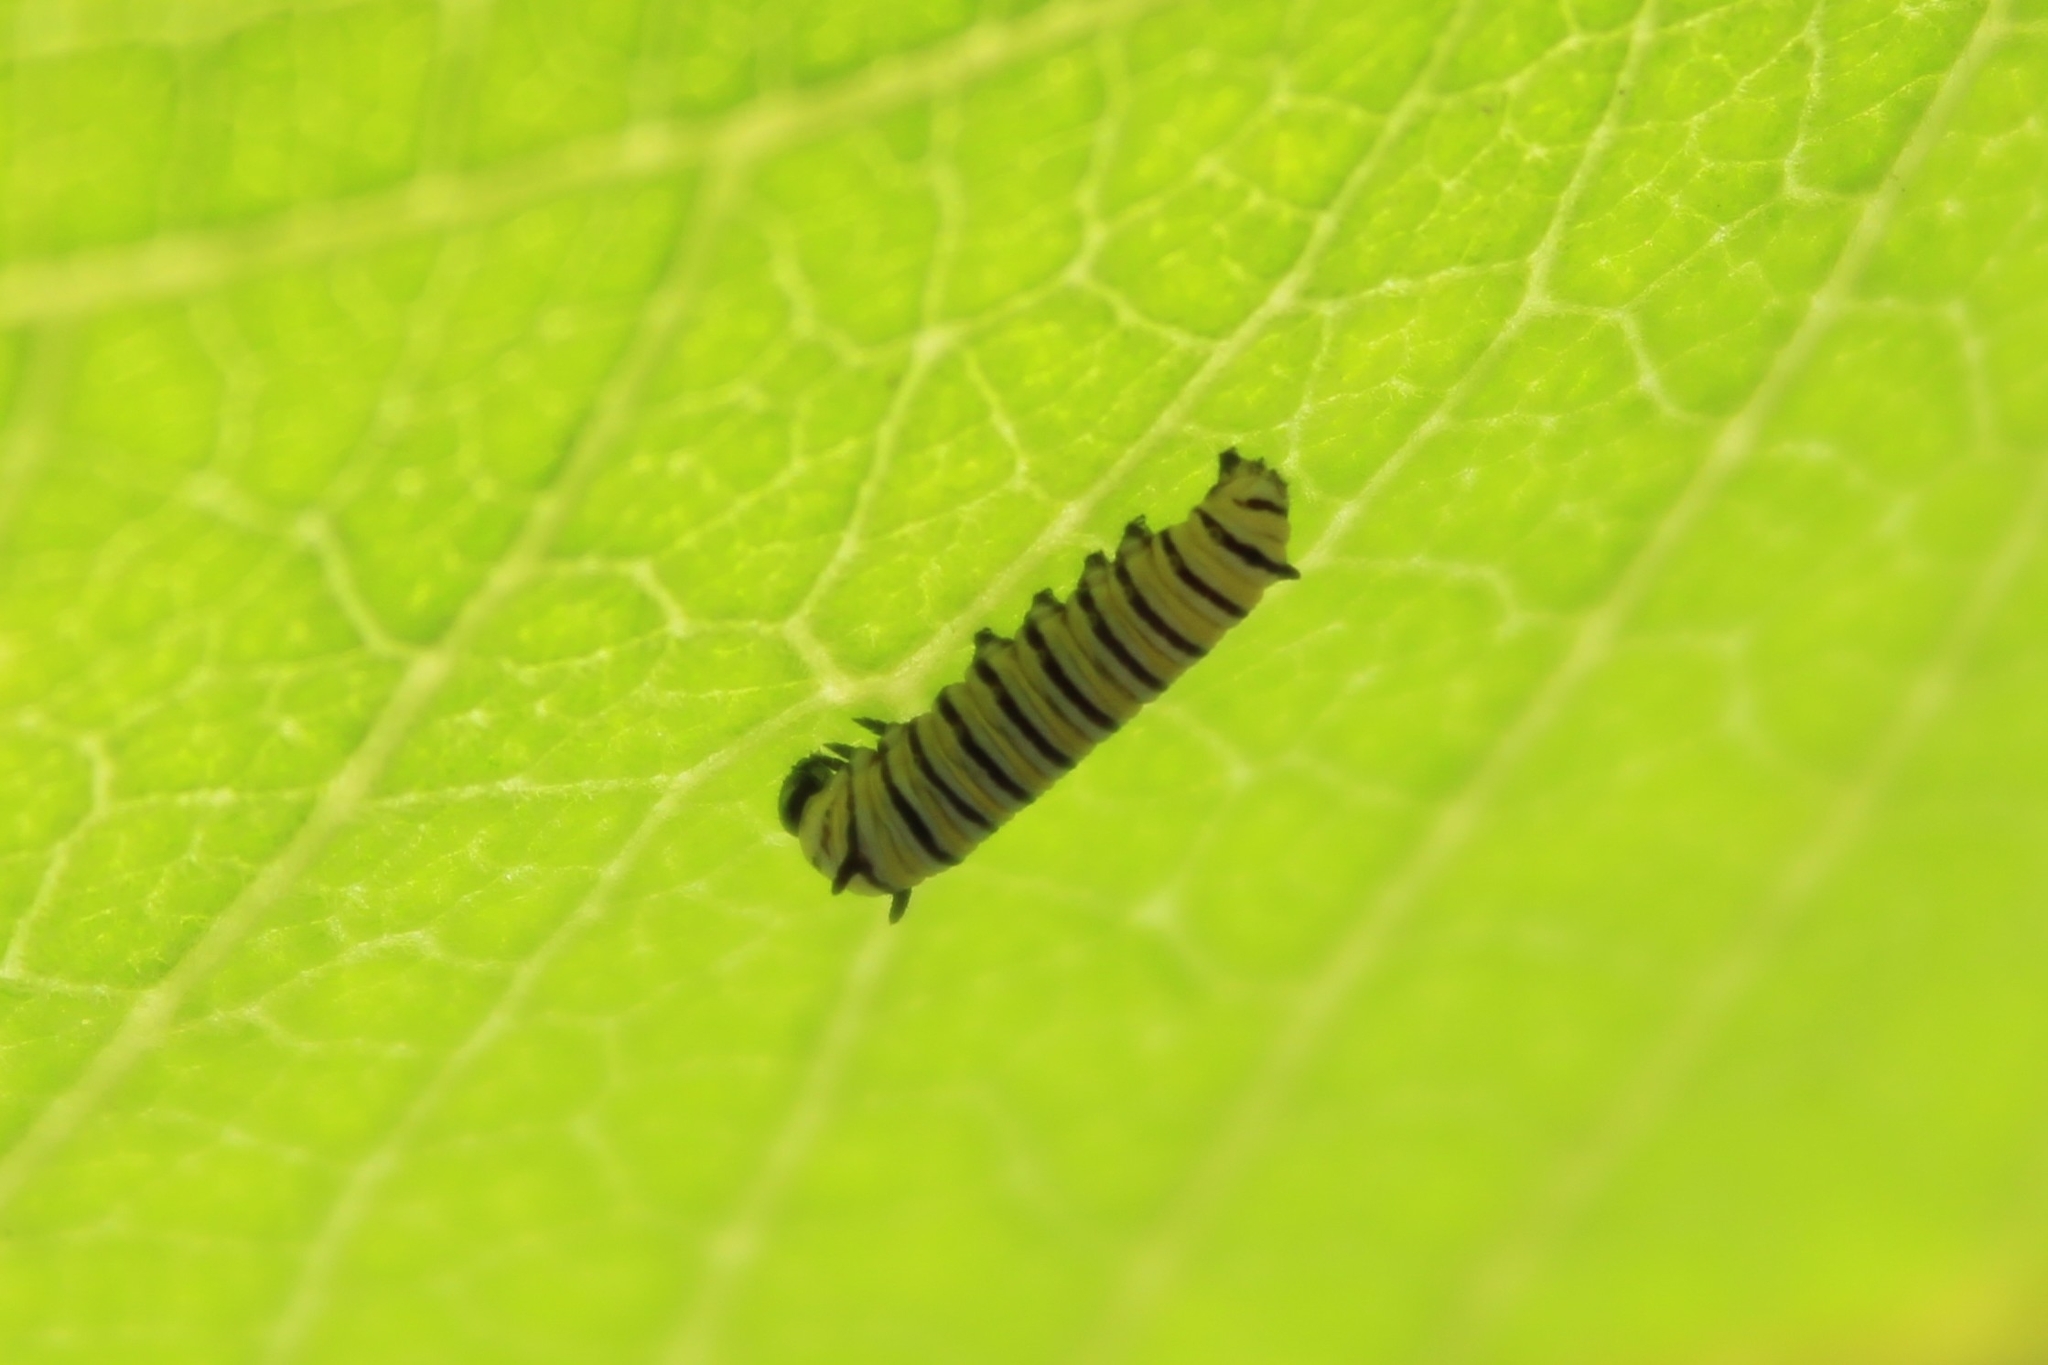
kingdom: Animalia
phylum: Arthropoda
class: Insecta
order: Lepidoptera
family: Nymphalidae
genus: Danaus
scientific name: Danaus plexippus
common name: Monarch
